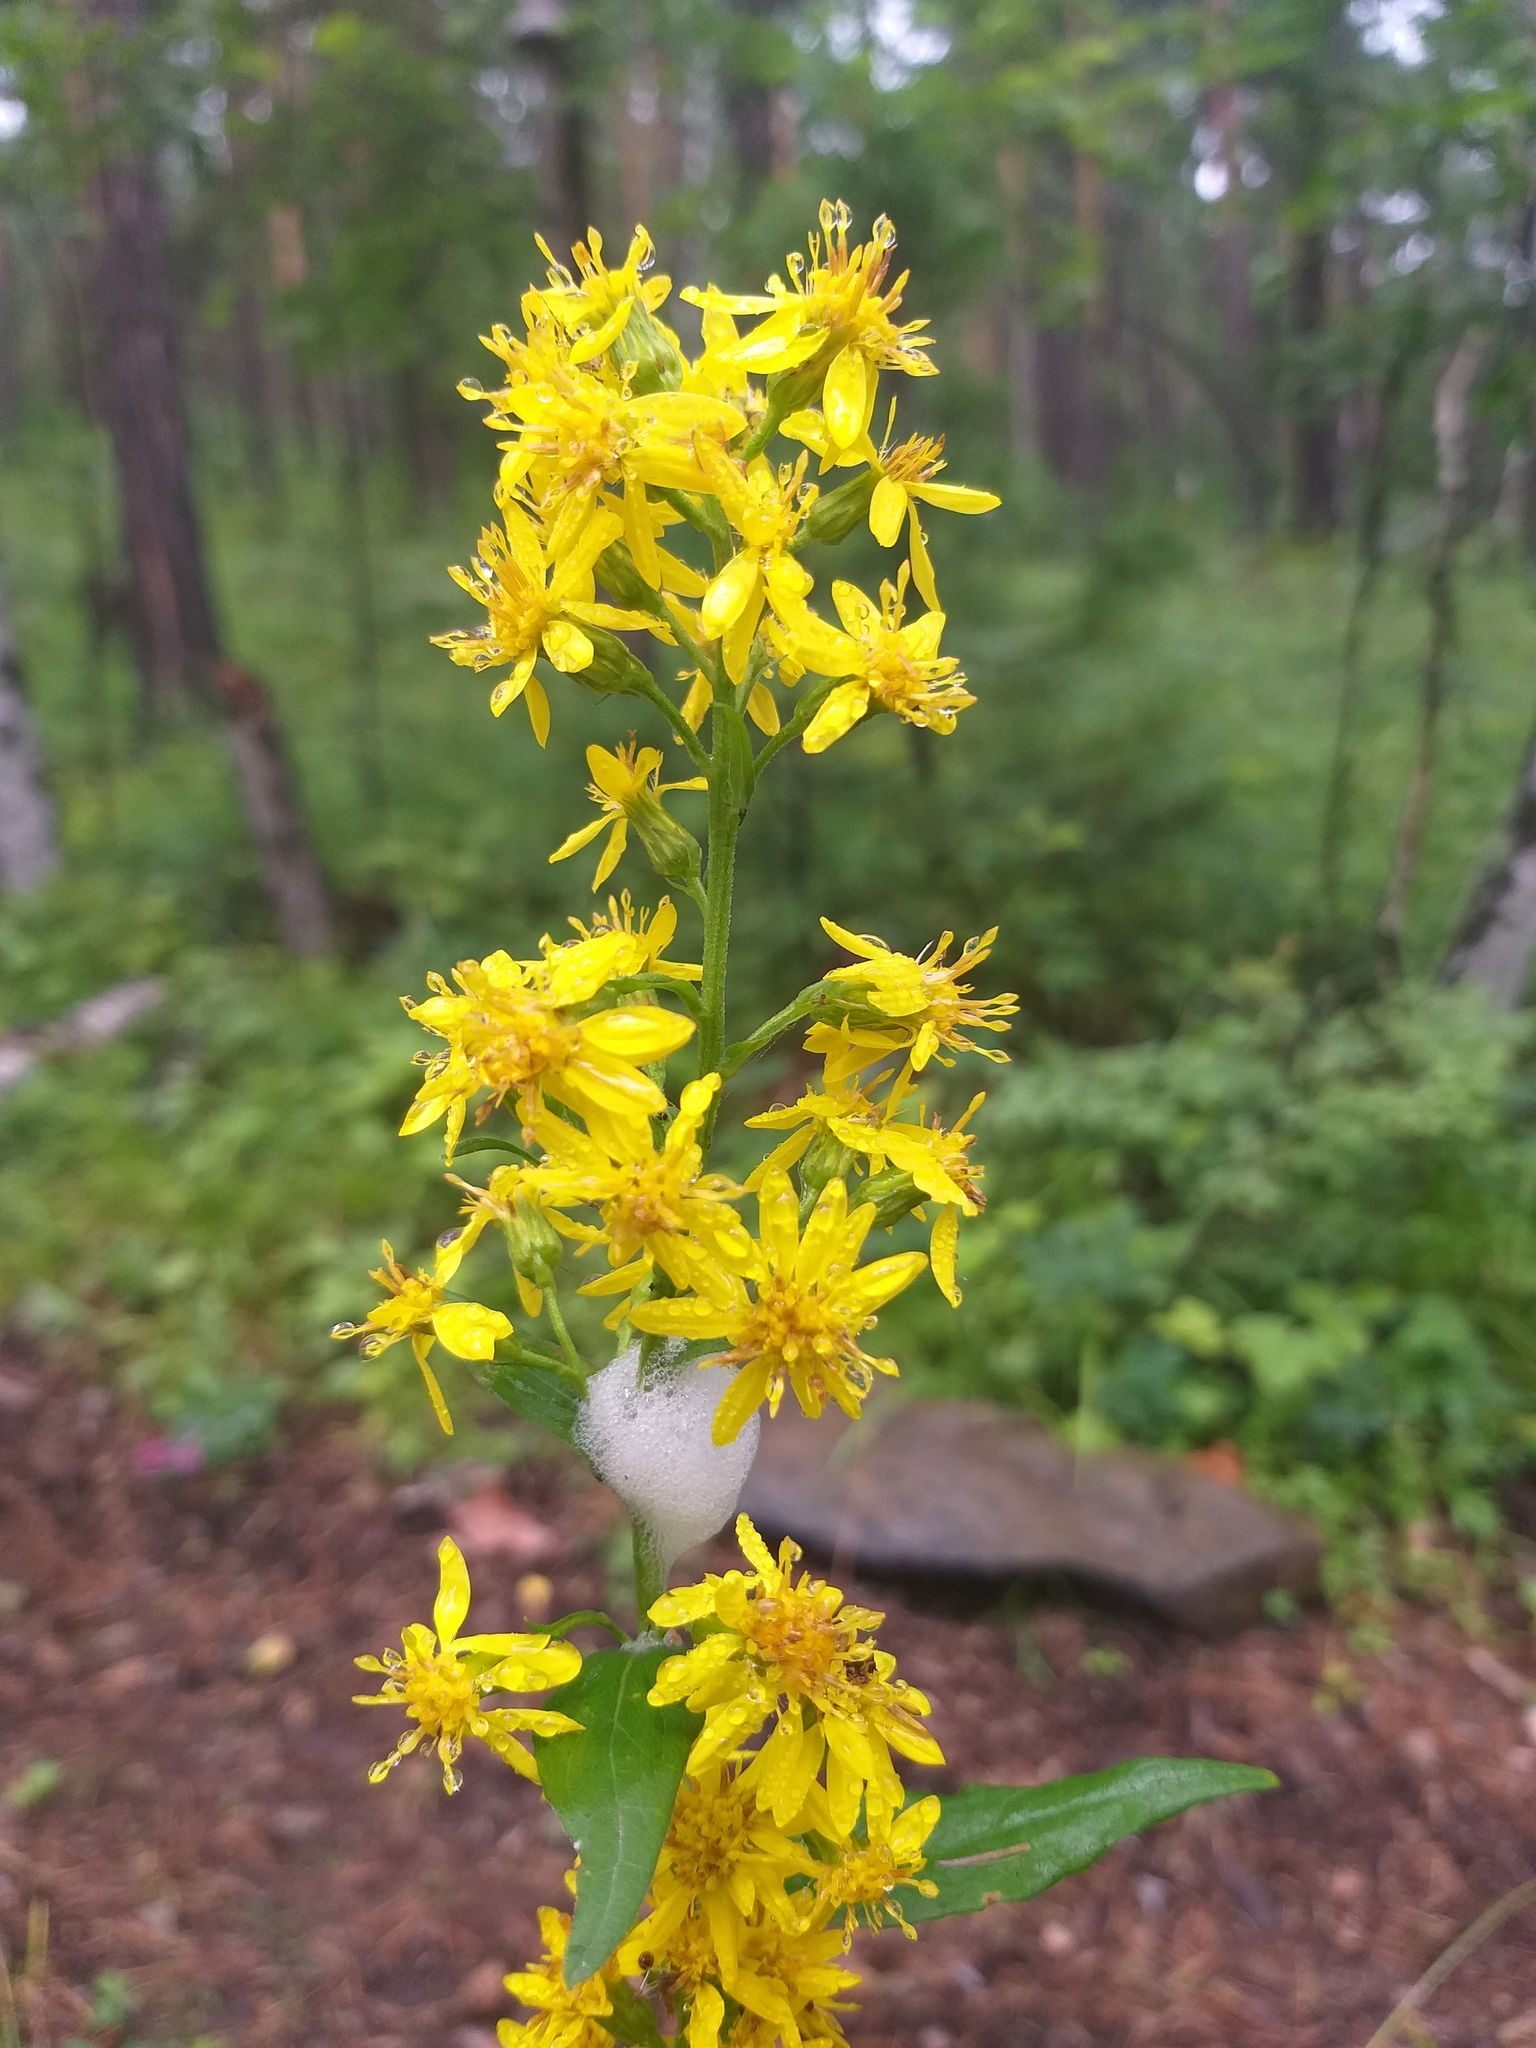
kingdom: Plantae
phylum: Tracheophyta
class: Magnoliopsida
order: Asterales
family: Asteraceae
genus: Ligularia
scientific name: Ligularia sibirica
